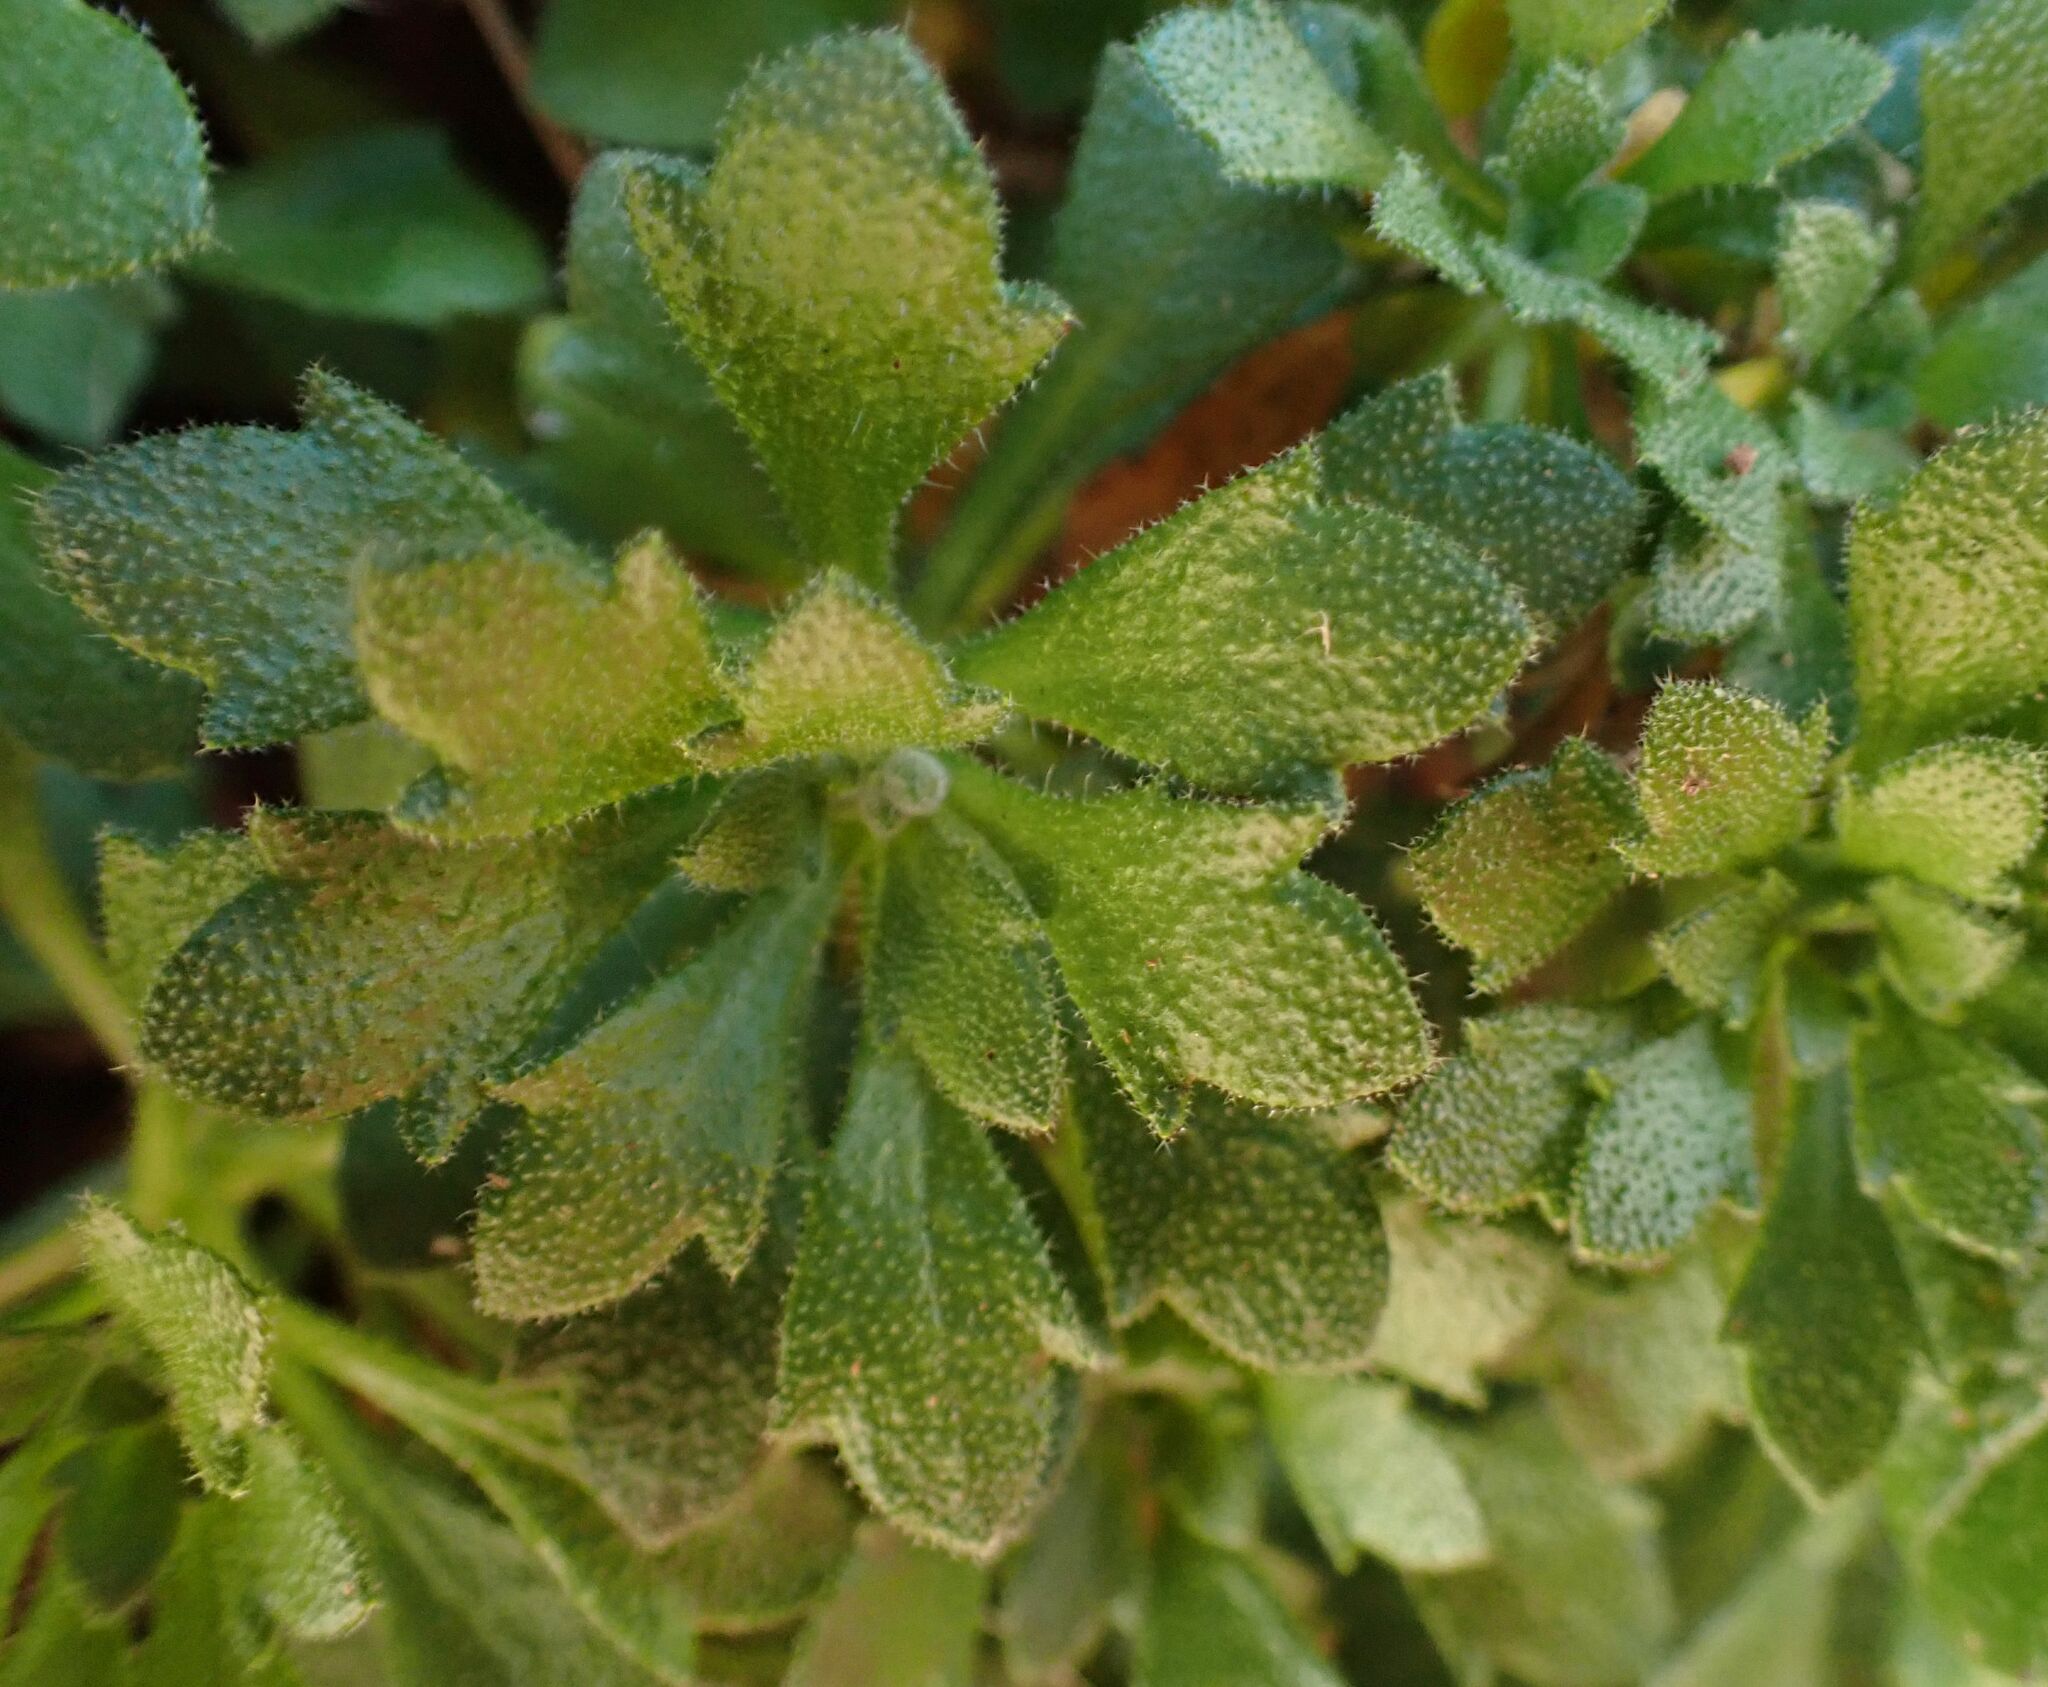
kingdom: Plantae
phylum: Tracheophyta
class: Magnoliopsida
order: Brassicales
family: Brassicaceae
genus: Aubrieta
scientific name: Aubrieta deltoidea
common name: Aubretia
